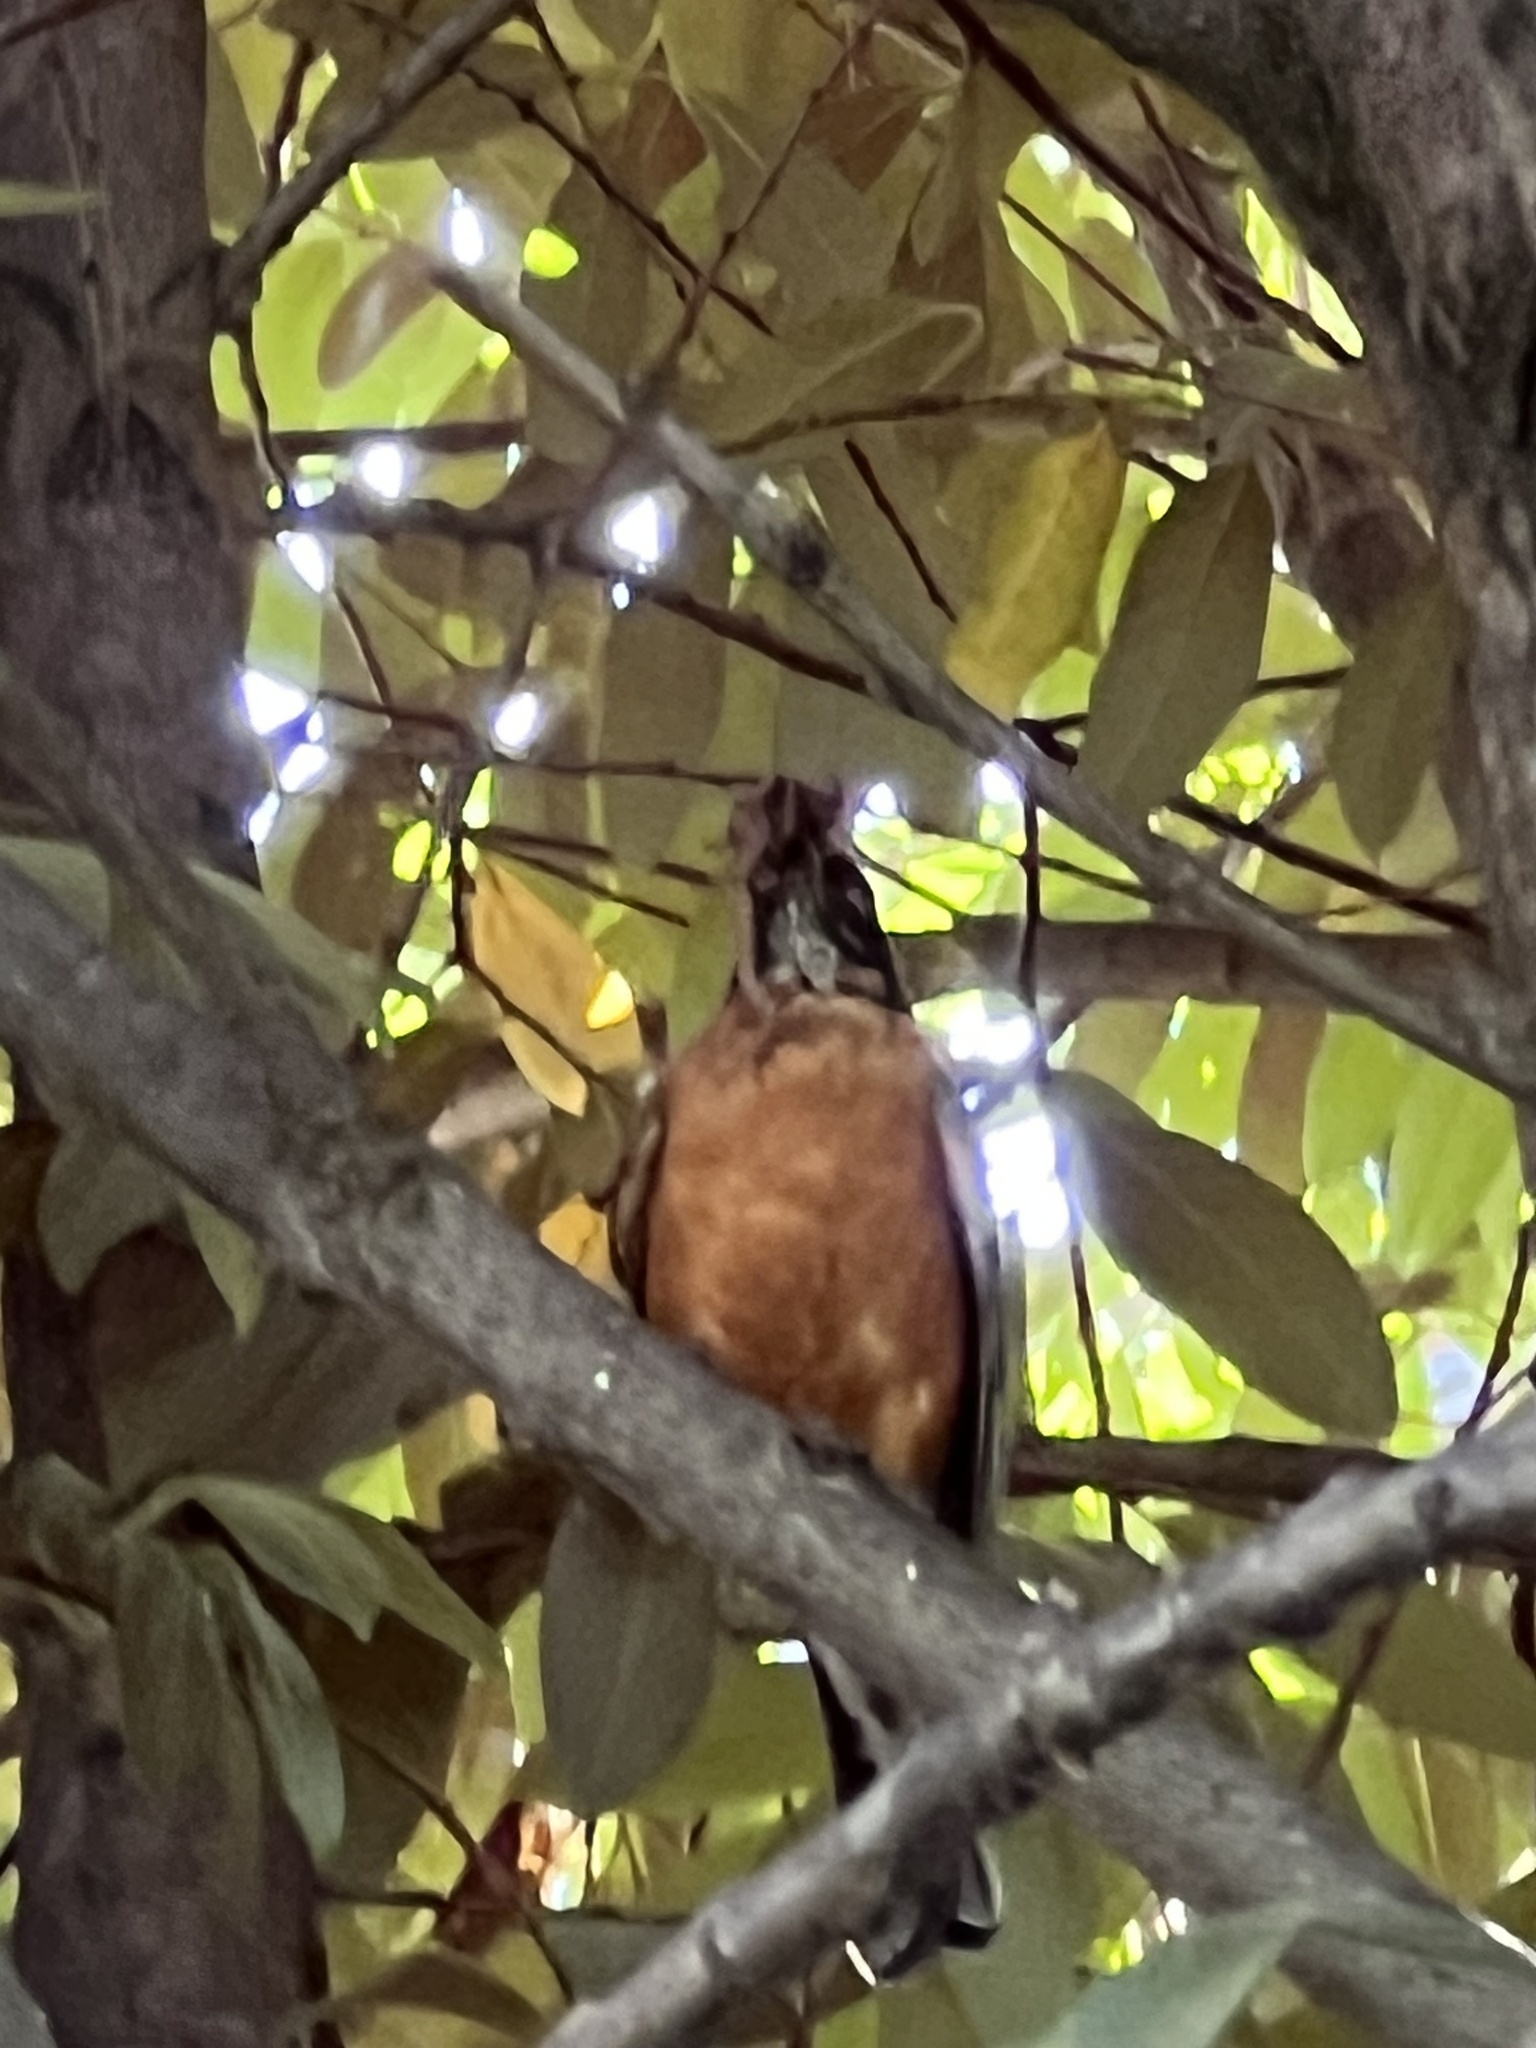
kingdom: Animalia
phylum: Chordata
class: Aves
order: Passeriformes
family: Turdidae
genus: Turdus
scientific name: Turdus migratorius
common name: American robin
